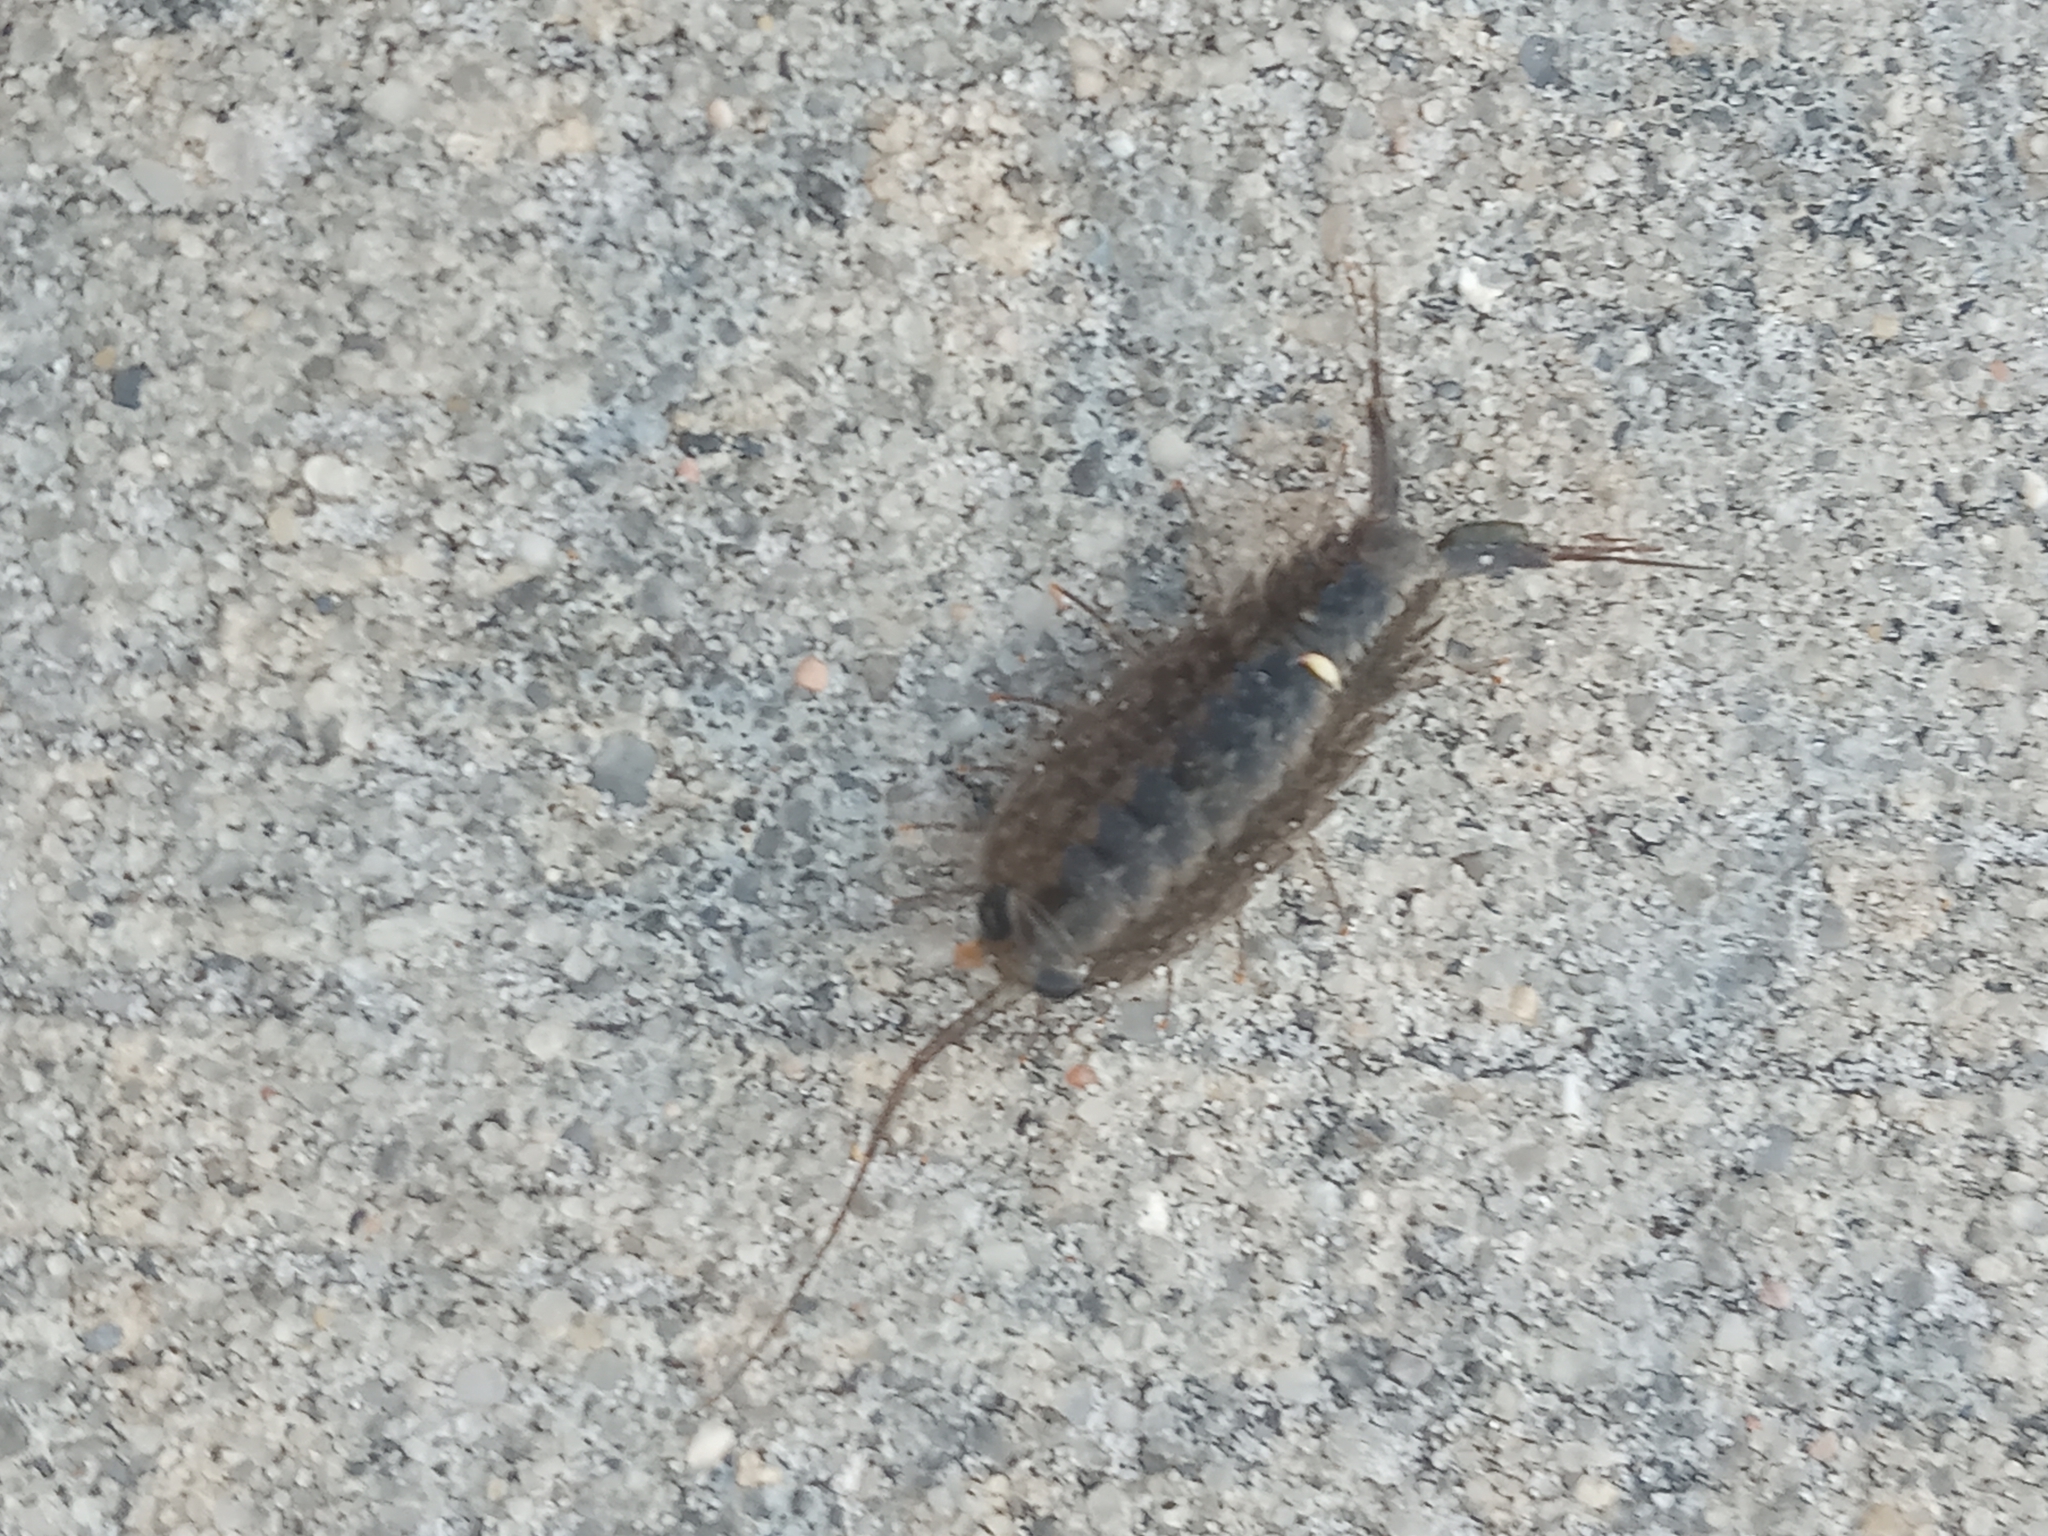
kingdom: Animalia
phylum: Arthropoda
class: Malacostraca
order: Isopoda
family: Ligiidae
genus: Ligia
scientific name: Ligia exotica
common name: Wharf roach
